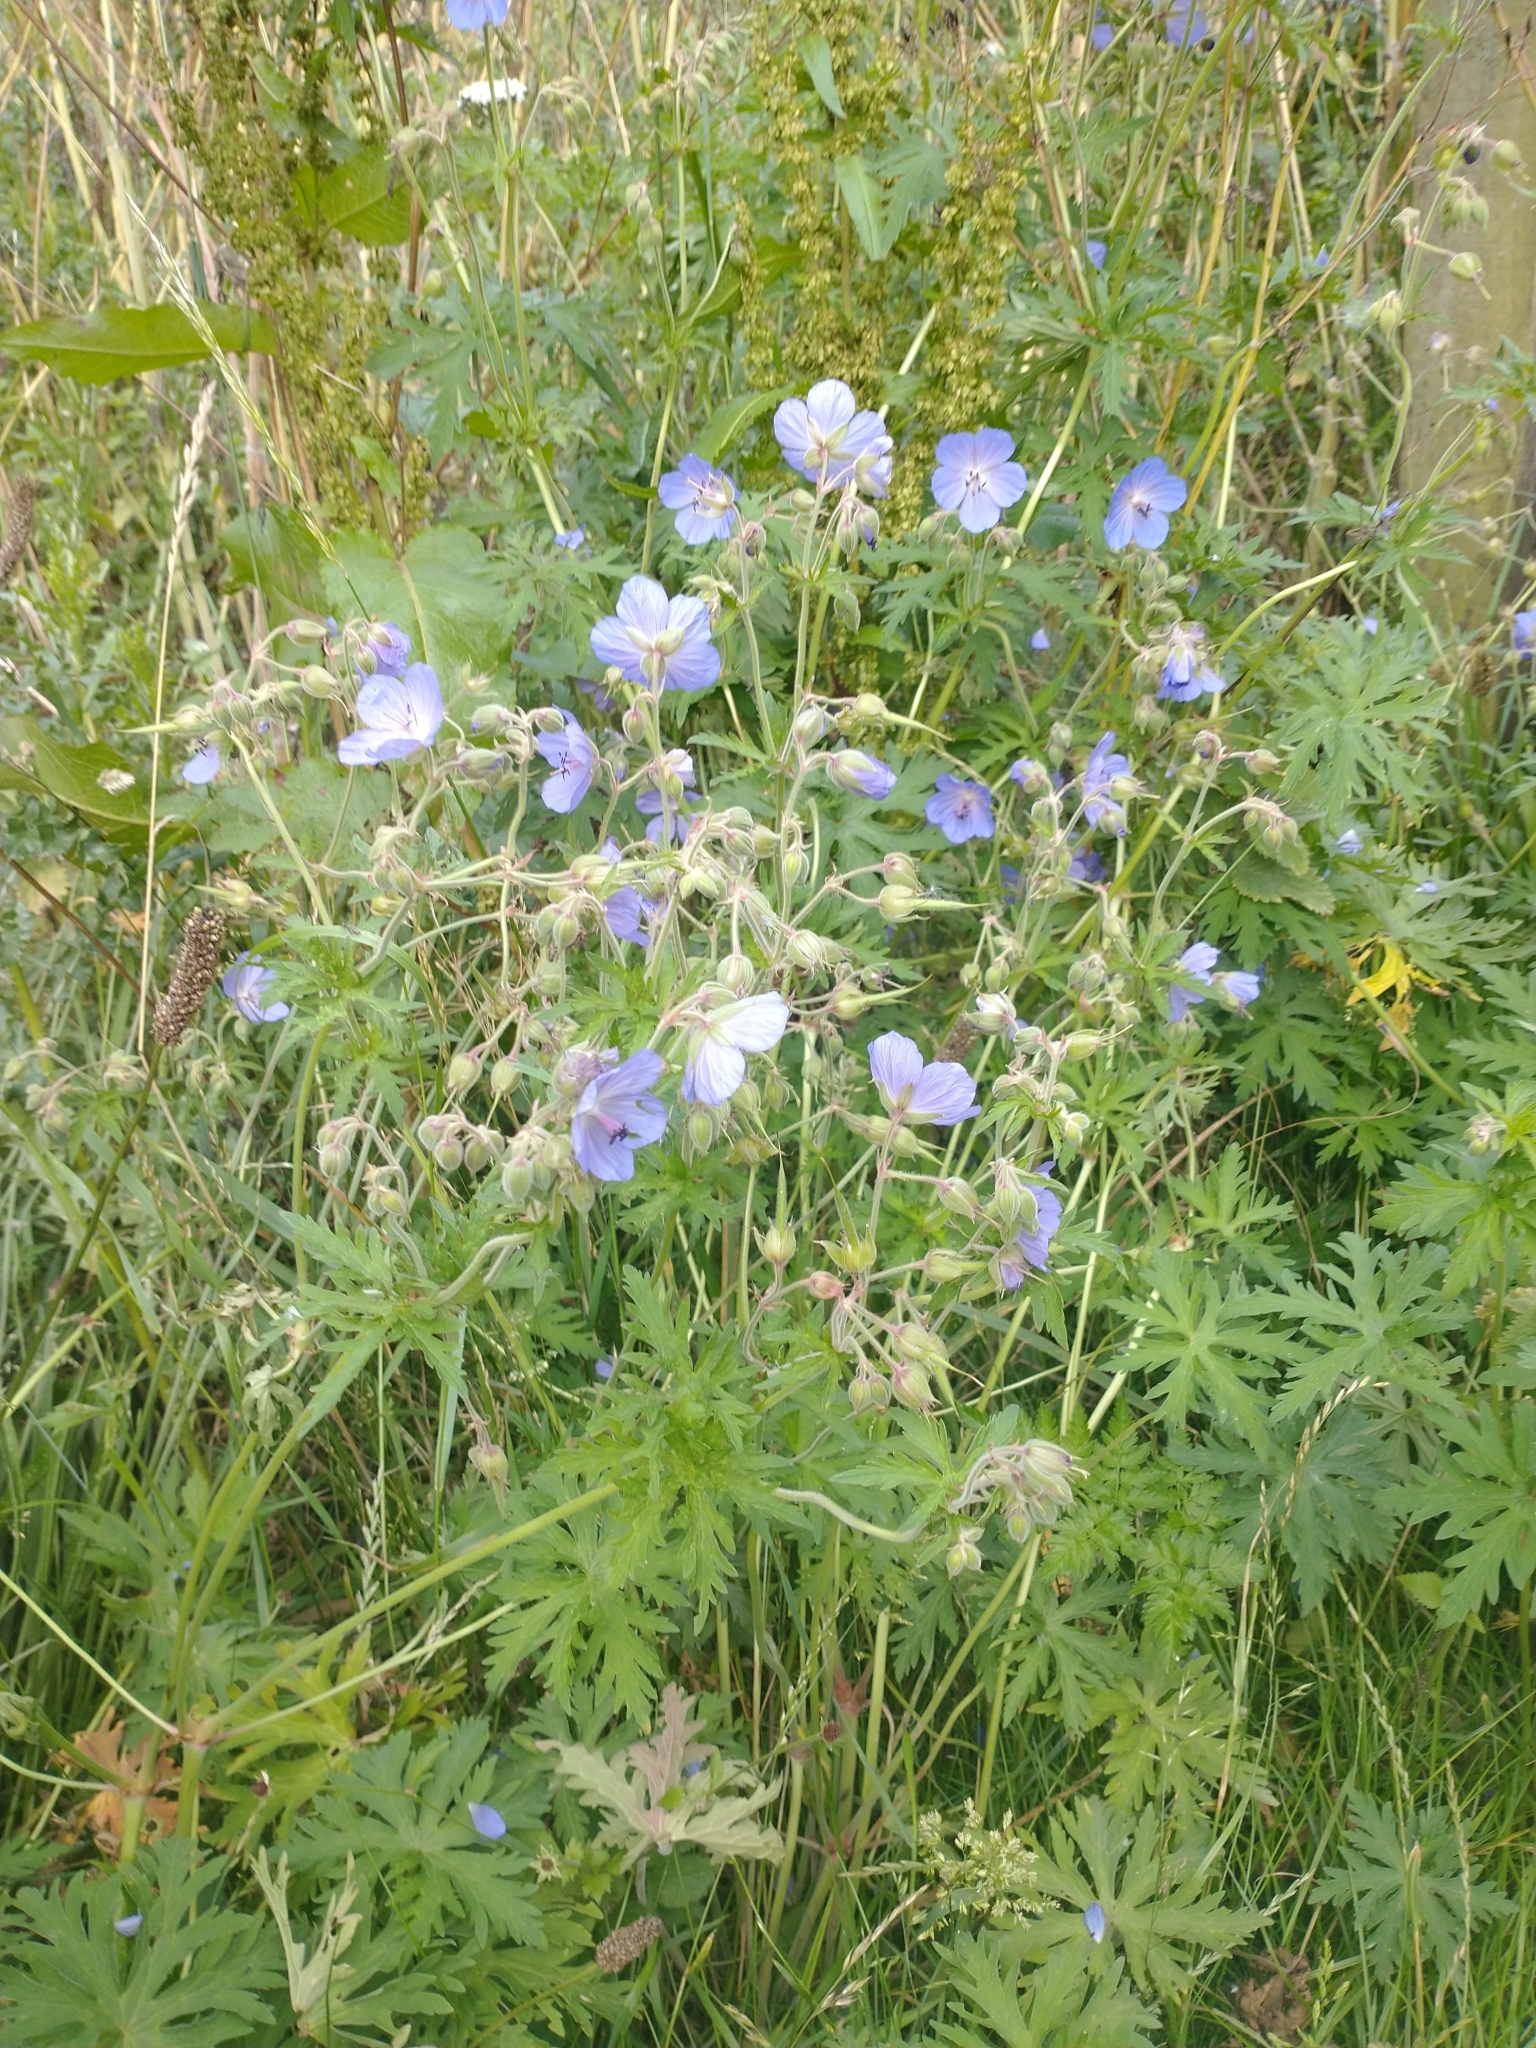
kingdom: Plantae
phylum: Tracheophyta
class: Magnoliopsida
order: Geraniales
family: Geraniaceae
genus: Geranium
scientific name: Geranium pratense
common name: Meadow crane's-bill
